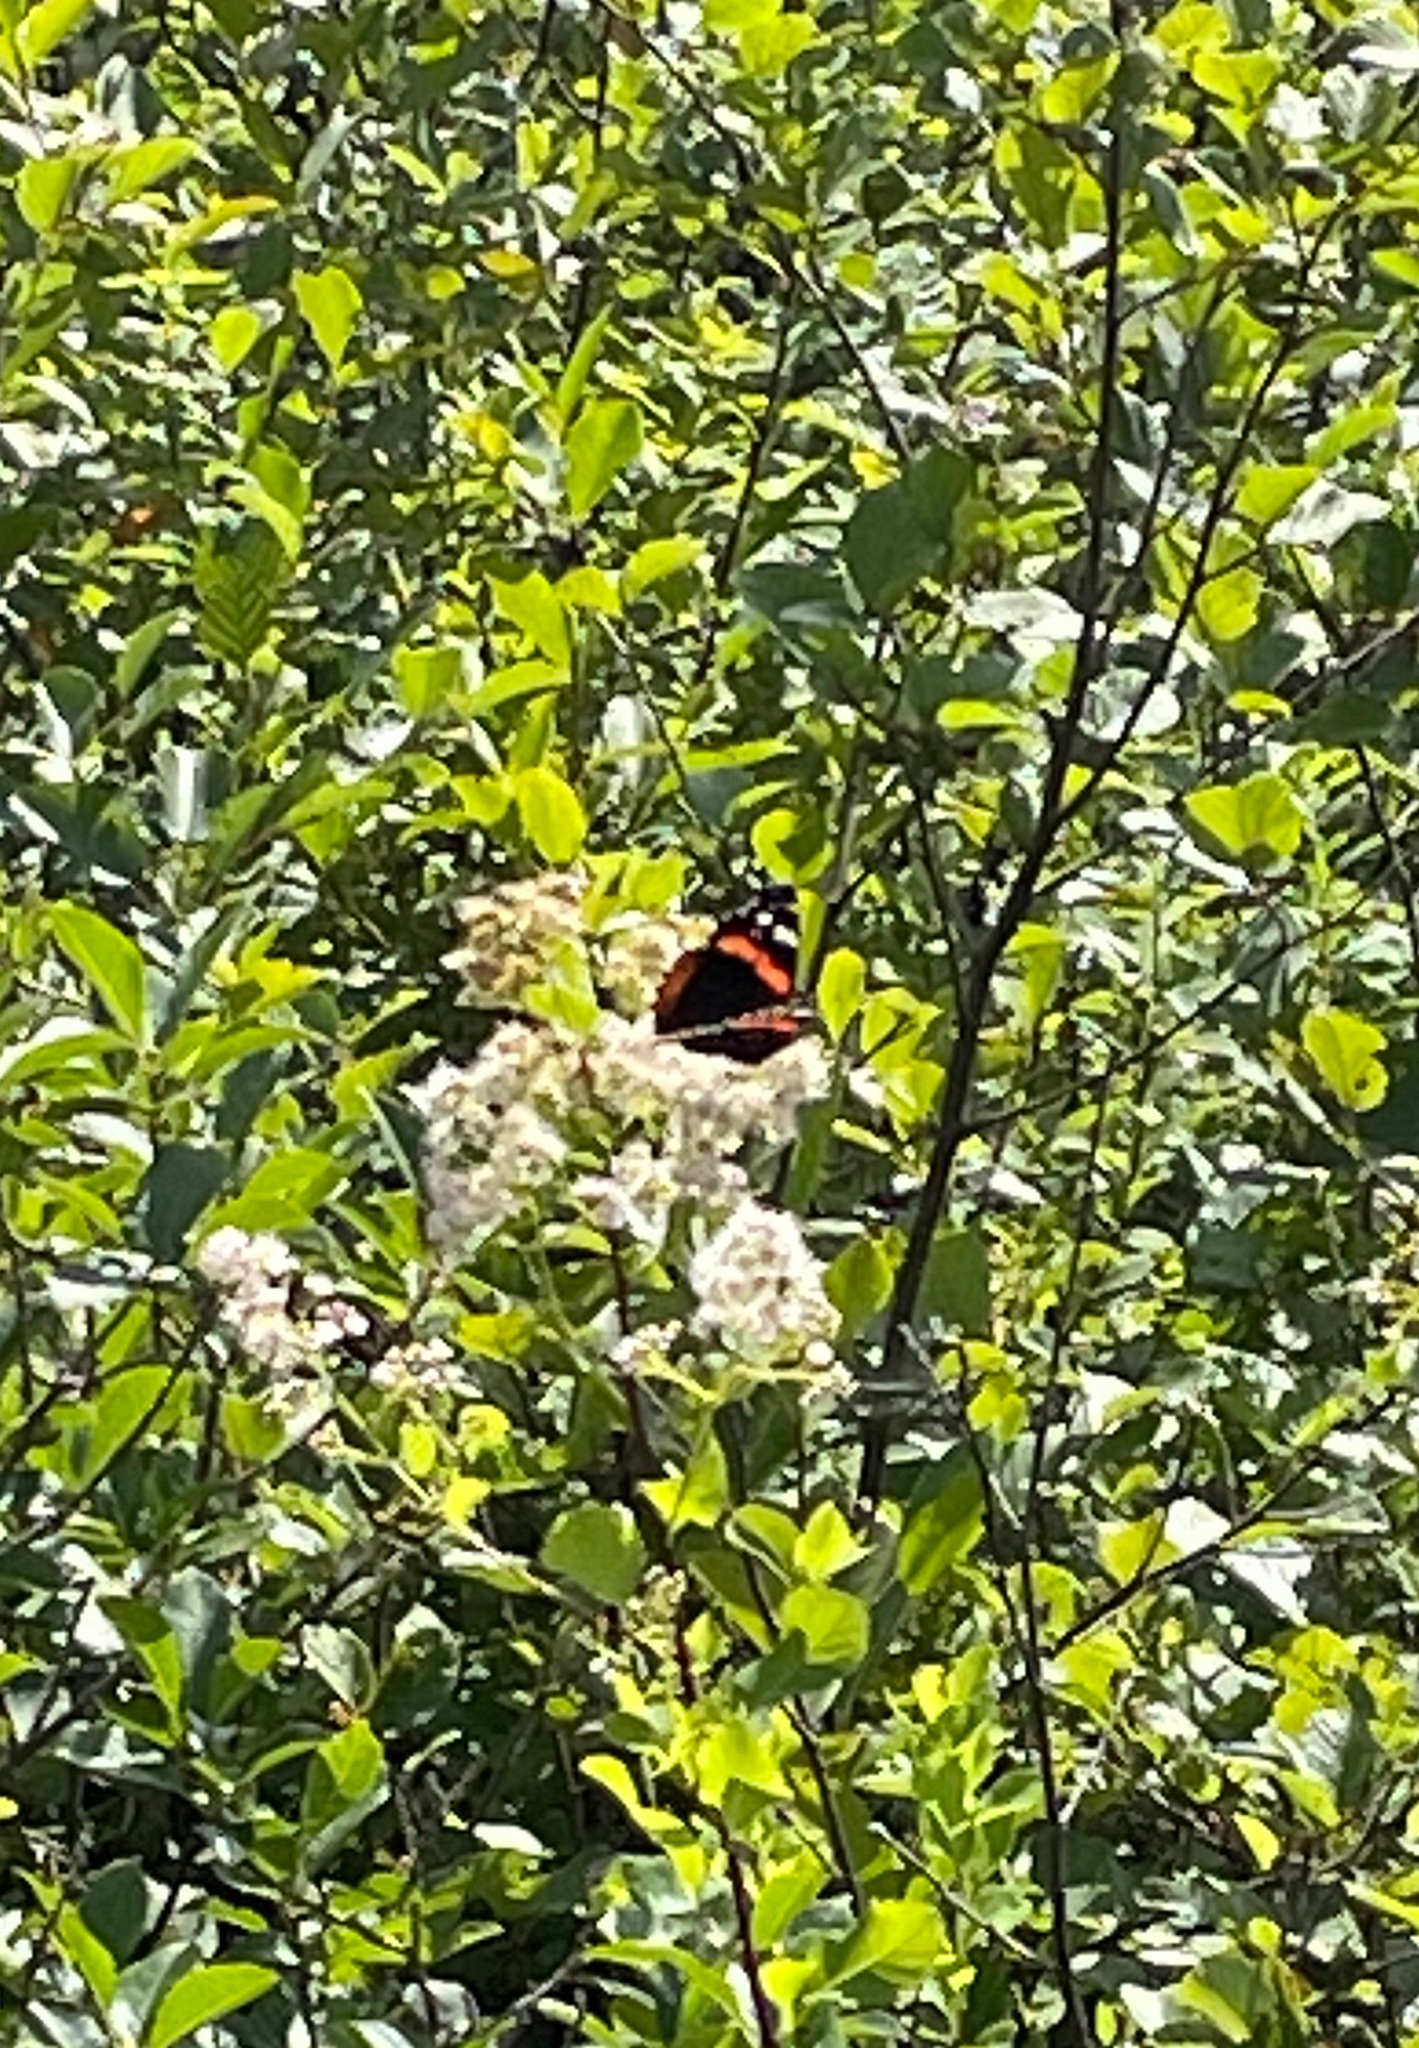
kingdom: Animalia
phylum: Arthropoda
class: Insecta
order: Lepidoptera
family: Nymphalidae
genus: Vanessa
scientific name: Vanessa atalanta
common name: Red admiral
